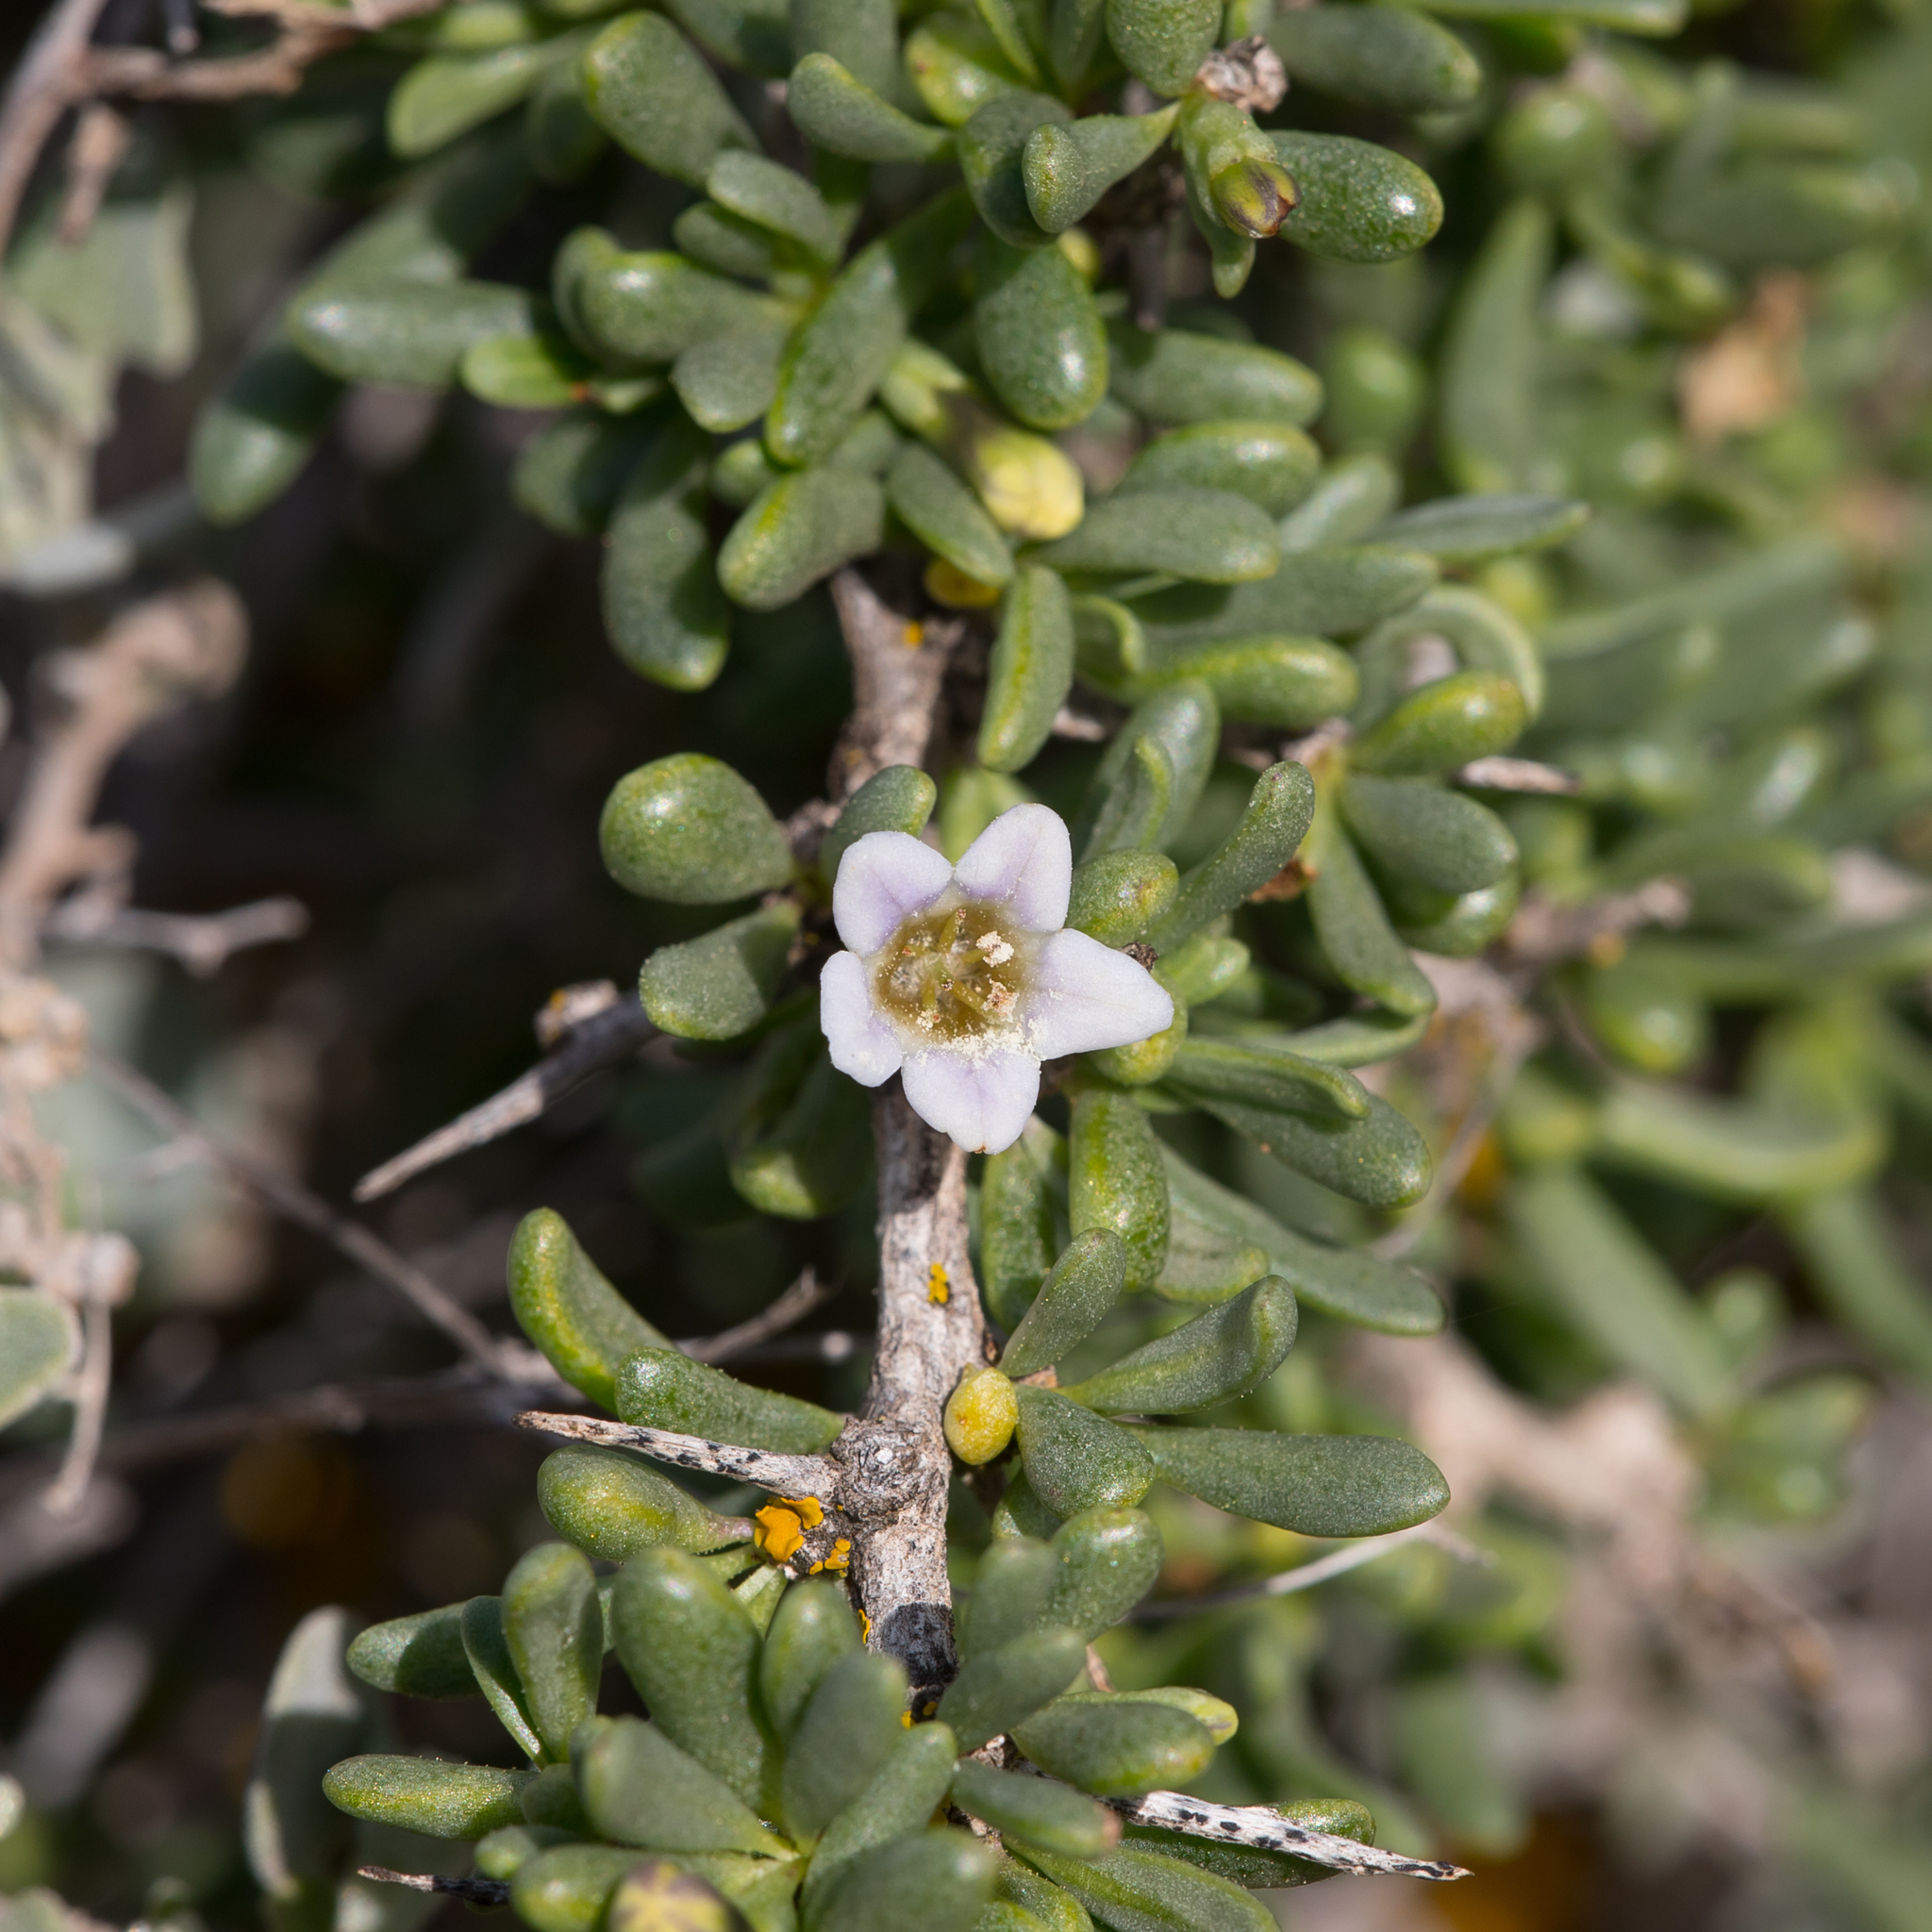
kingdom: Plantae
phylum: Tracheophyta
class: Magnoliopsida
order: Solanales
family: Solanaceae
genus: Lycium
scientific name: Lycium australe
